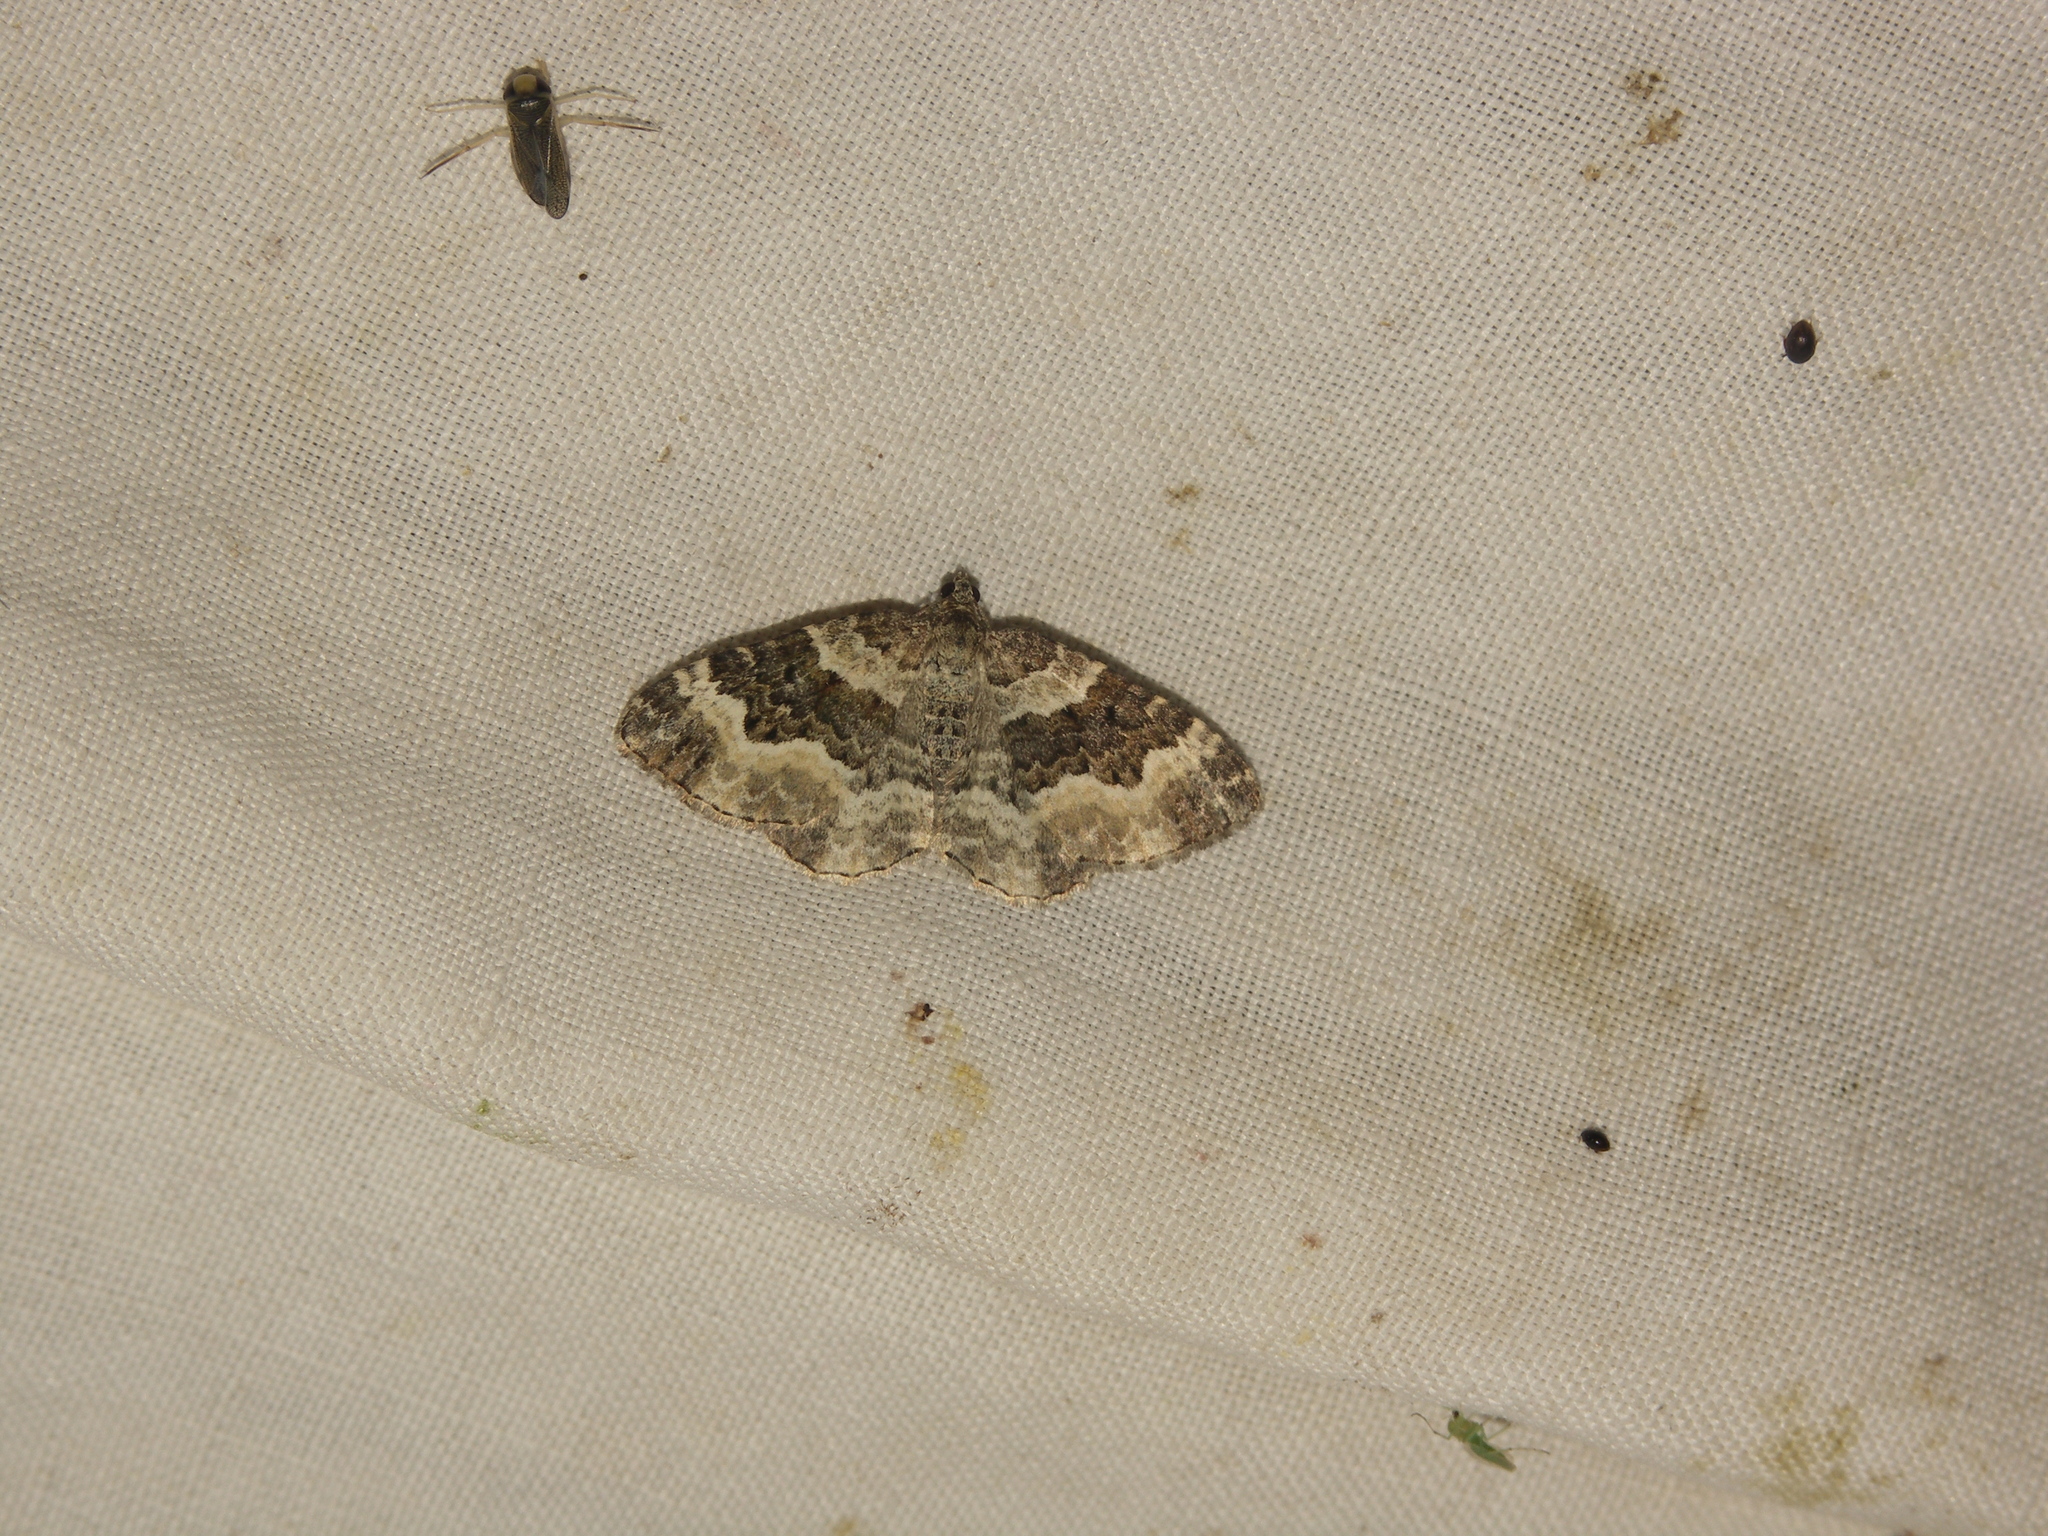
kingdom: Animalia
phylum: Arthropoda
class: Insecta
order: Lepidoptera
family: Geometridae
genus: Epirrhoe
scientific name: Epirrhoe alternata
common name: Common carpet
